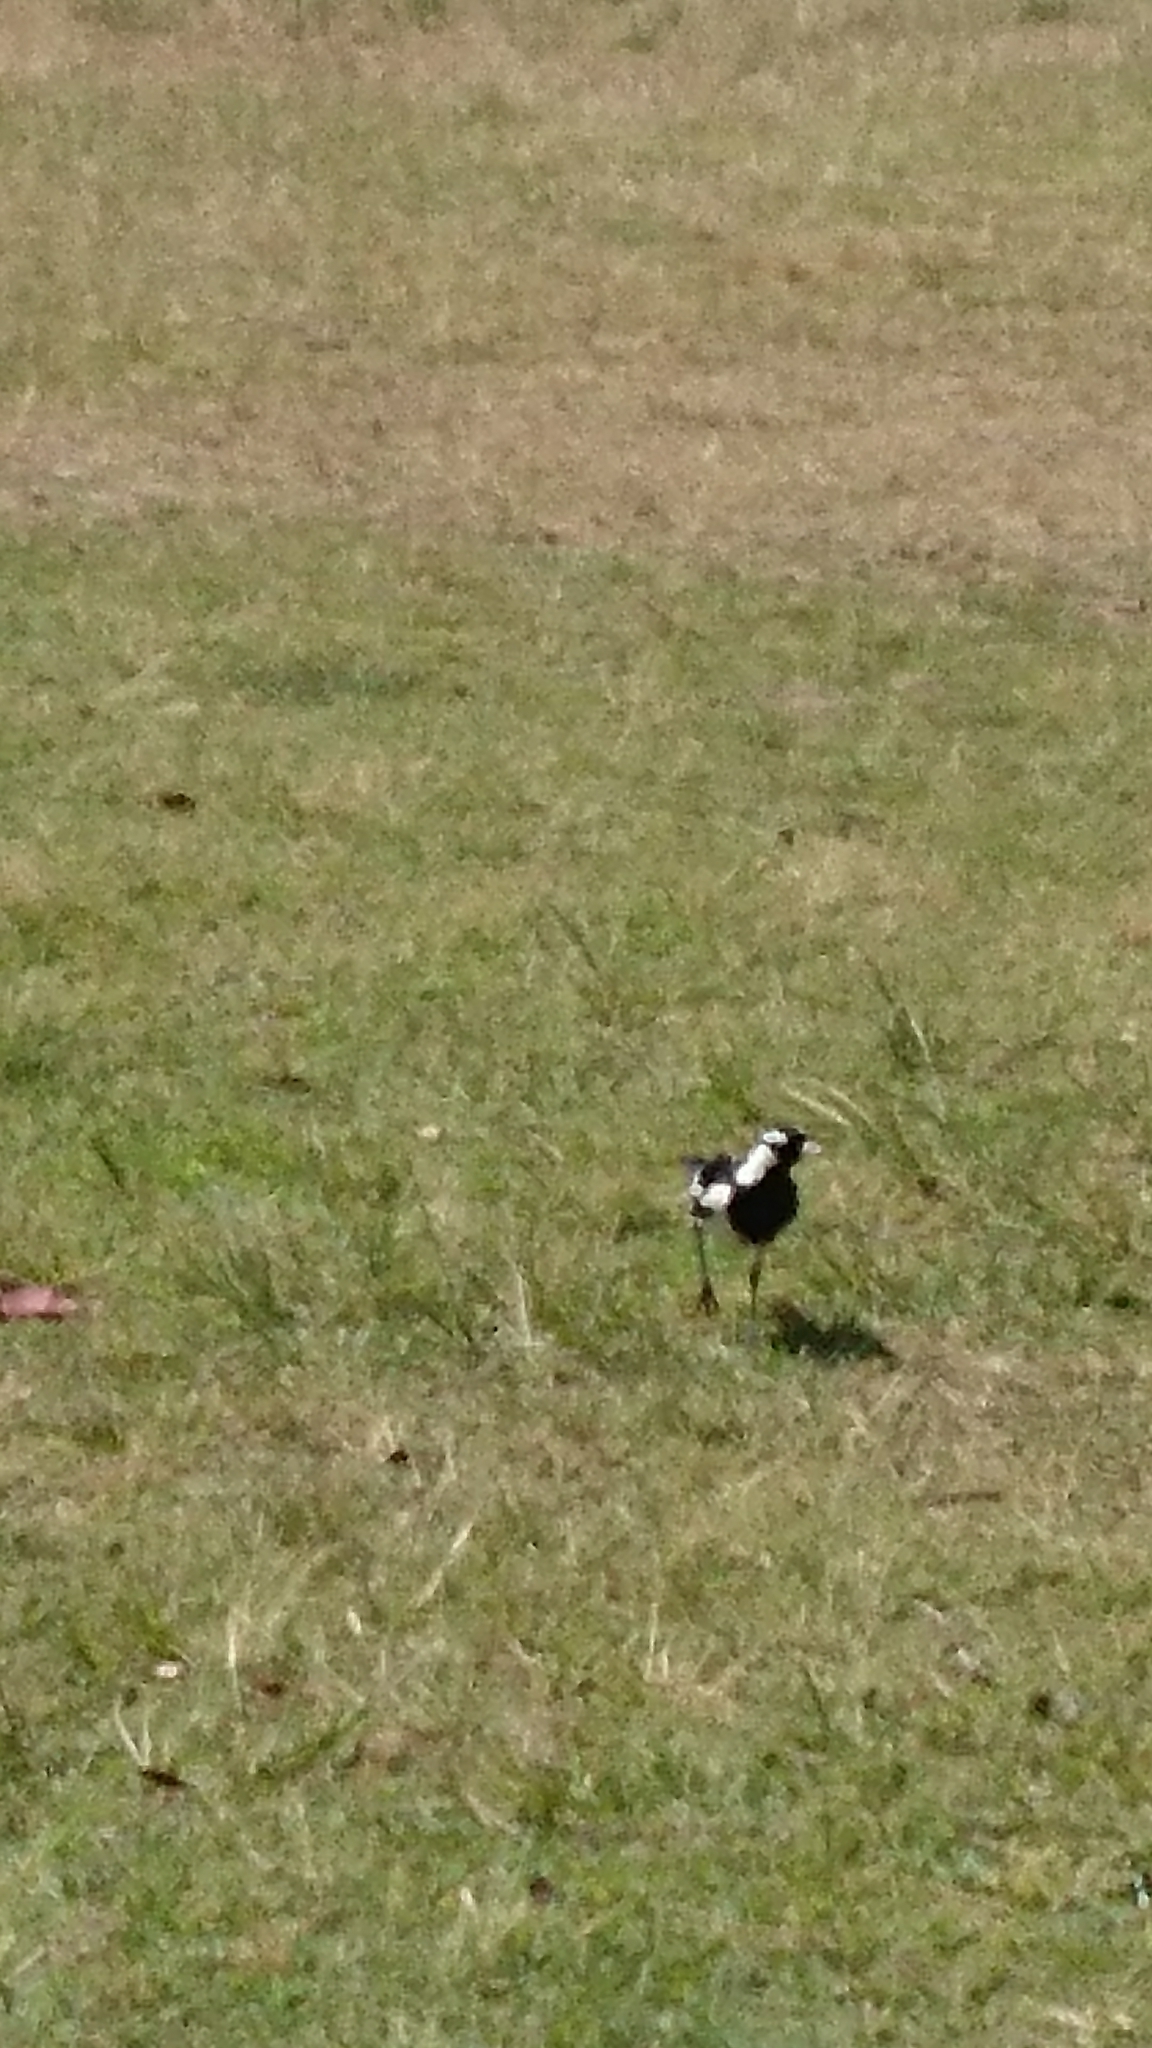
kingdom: Animalia
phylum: Chordata
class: Aves
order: Passeriformes
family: Monarchidae
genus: Grallina
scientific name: Grallina cyanoleuca
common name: Magpie-lark
